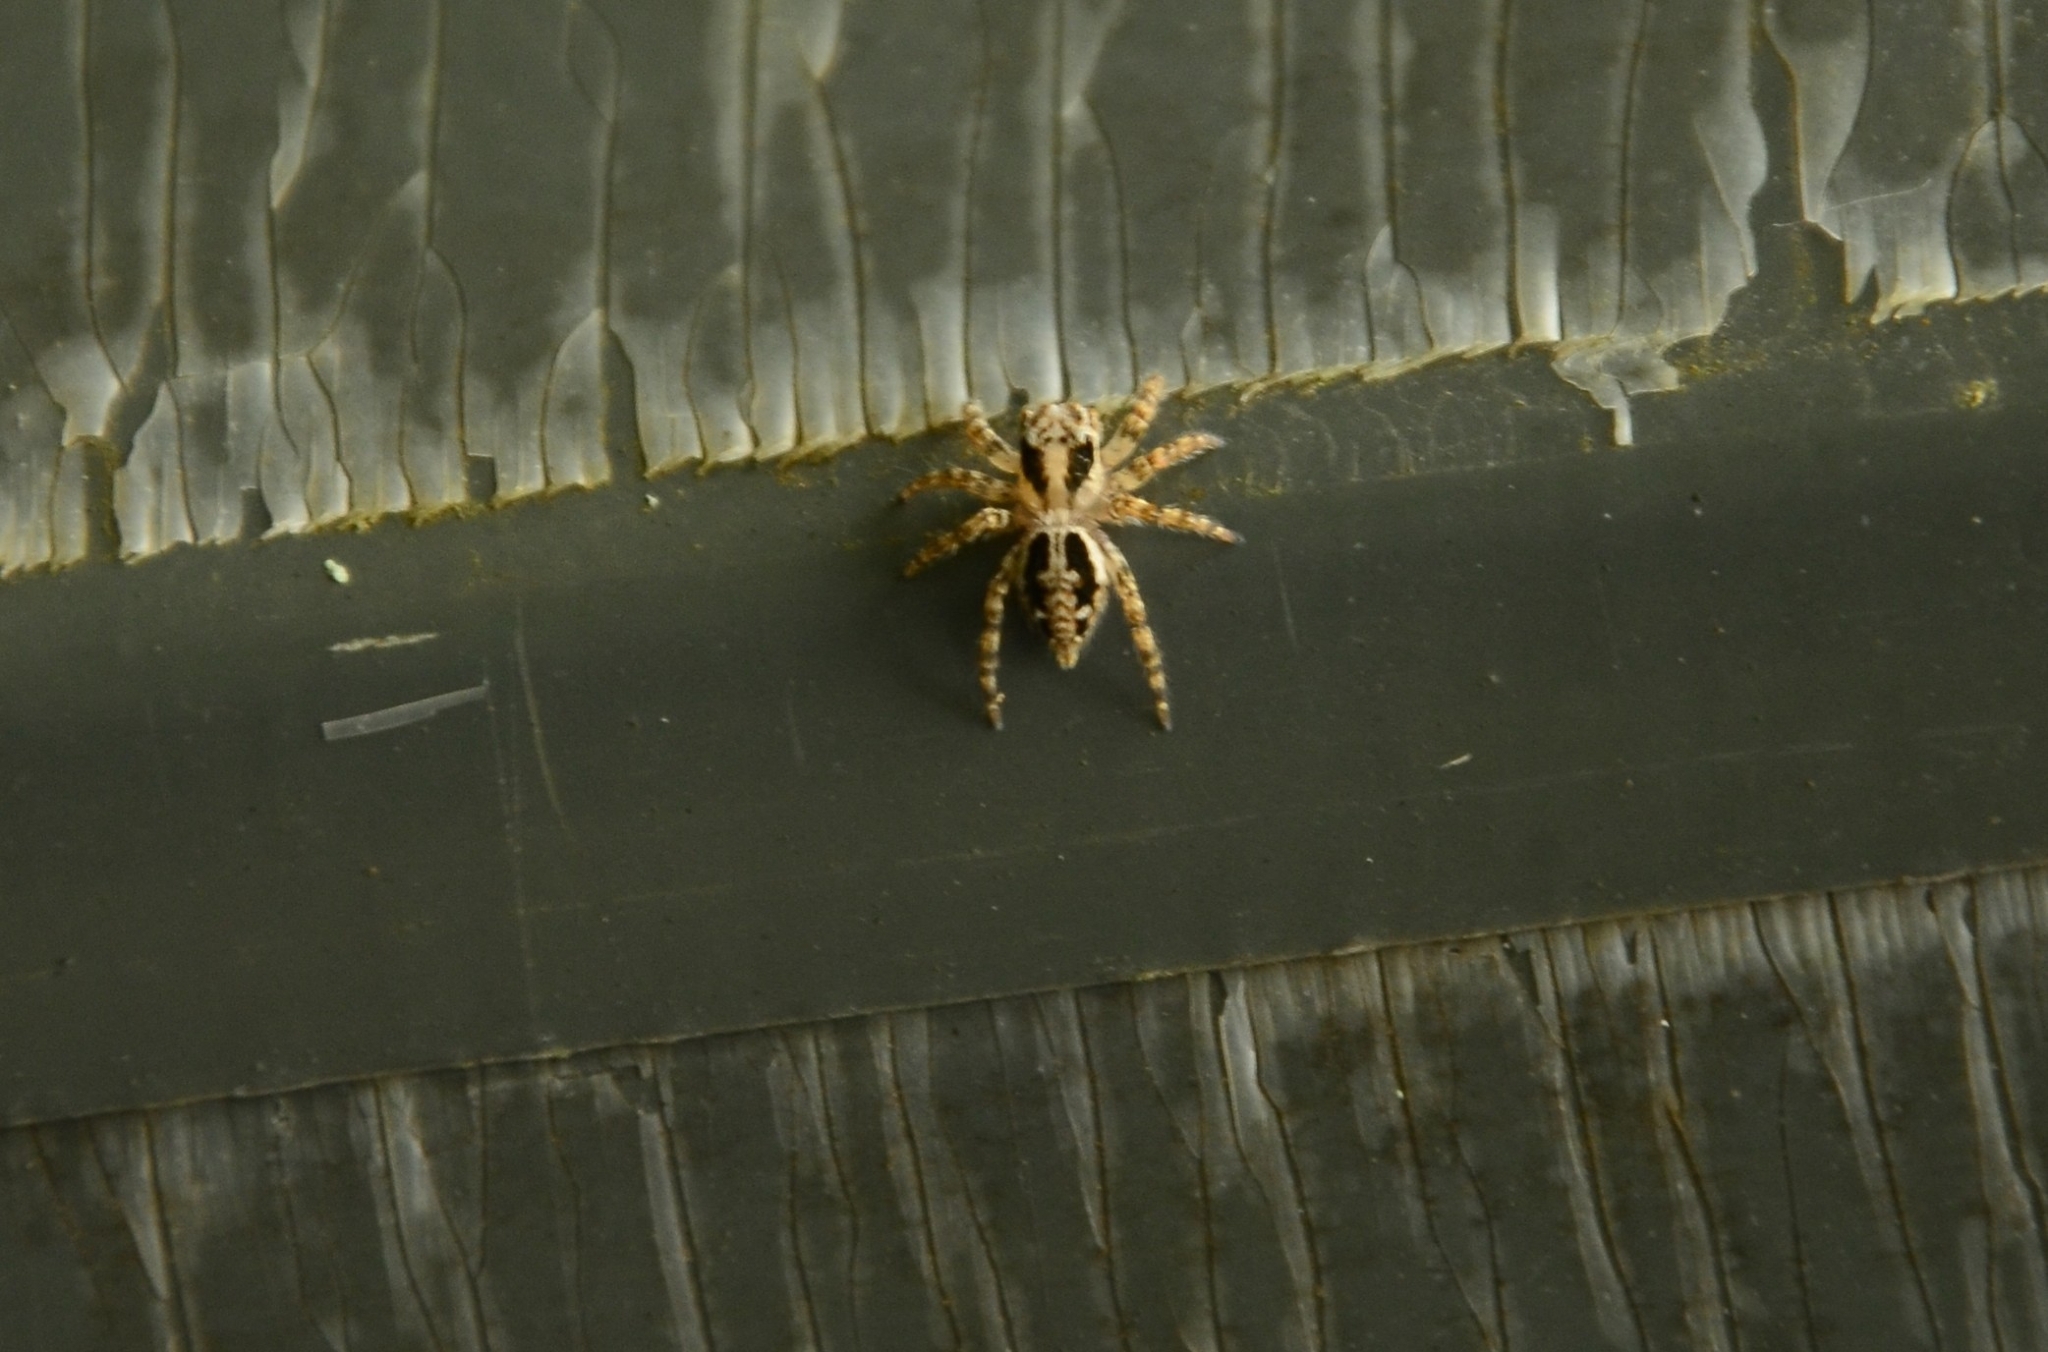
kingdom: Animalia
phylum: Arthropoda
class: Arachnida
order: Araneae
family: Salticidae
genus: Plexippus
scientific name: Plexippus petersi
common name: Jumping spider
